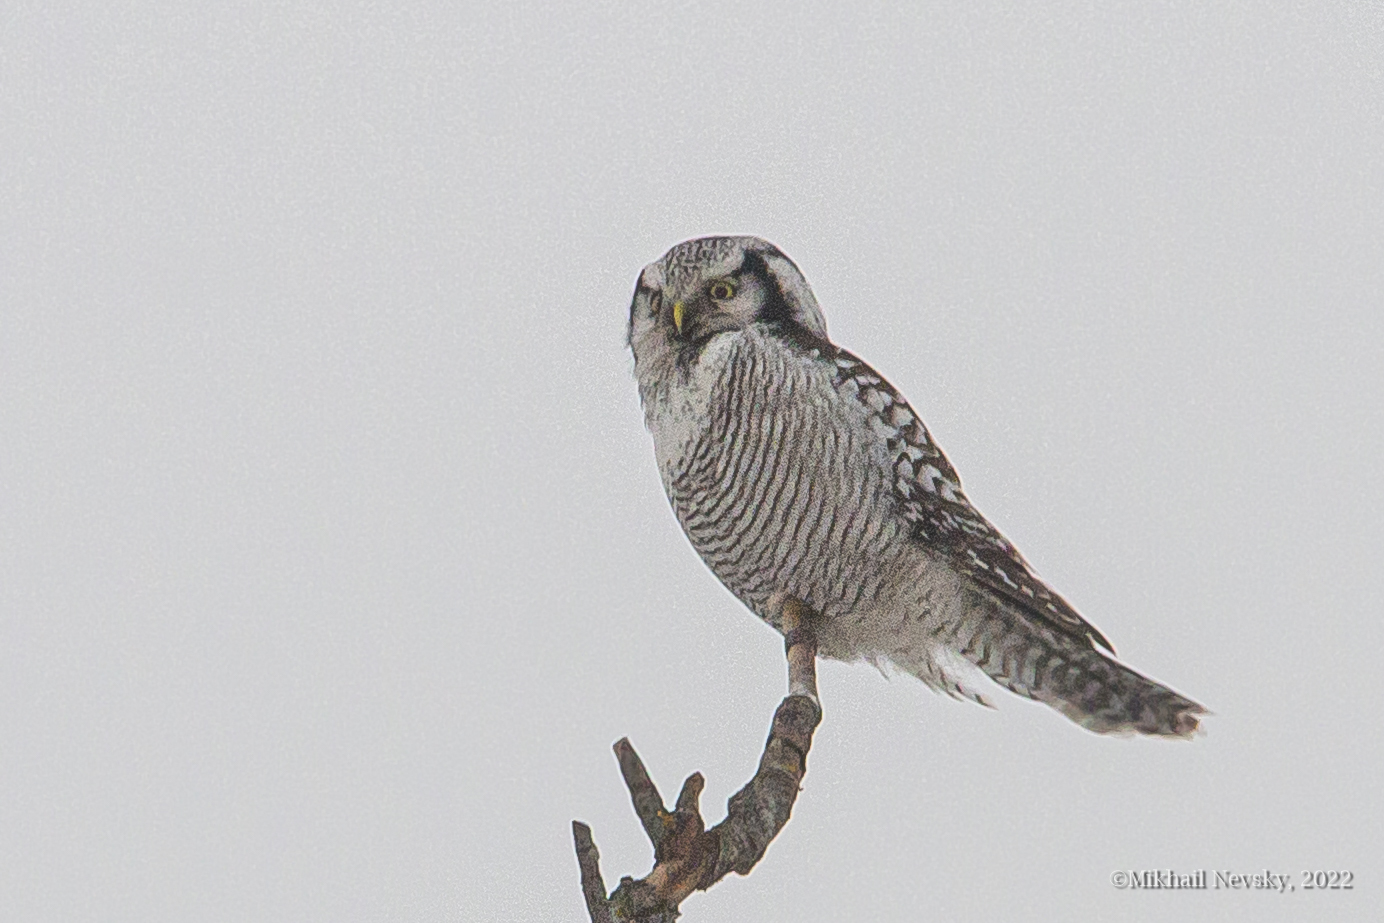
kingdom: Animalia
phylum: Chordata
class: Aves
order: Strigiformes
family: Strigidae
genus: Surnia
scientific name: Surnia ulula
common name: Northern hawk-owl
